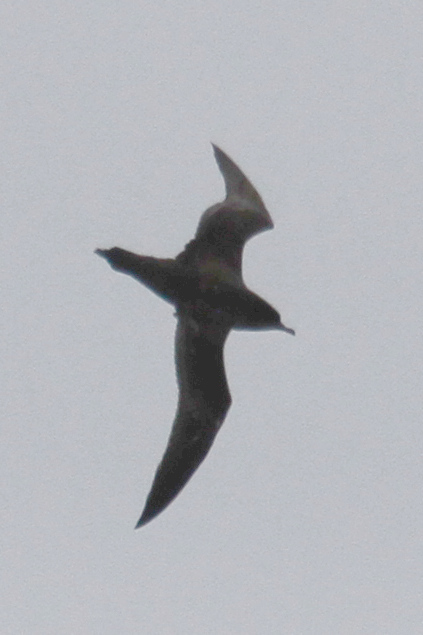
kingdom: Animalia
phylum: Chordata
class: Aves
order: Procellariiformes
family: Procellariidae
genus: Puffinus
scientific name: Puffinus tenuirostris
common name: Short-tailed shearwater
